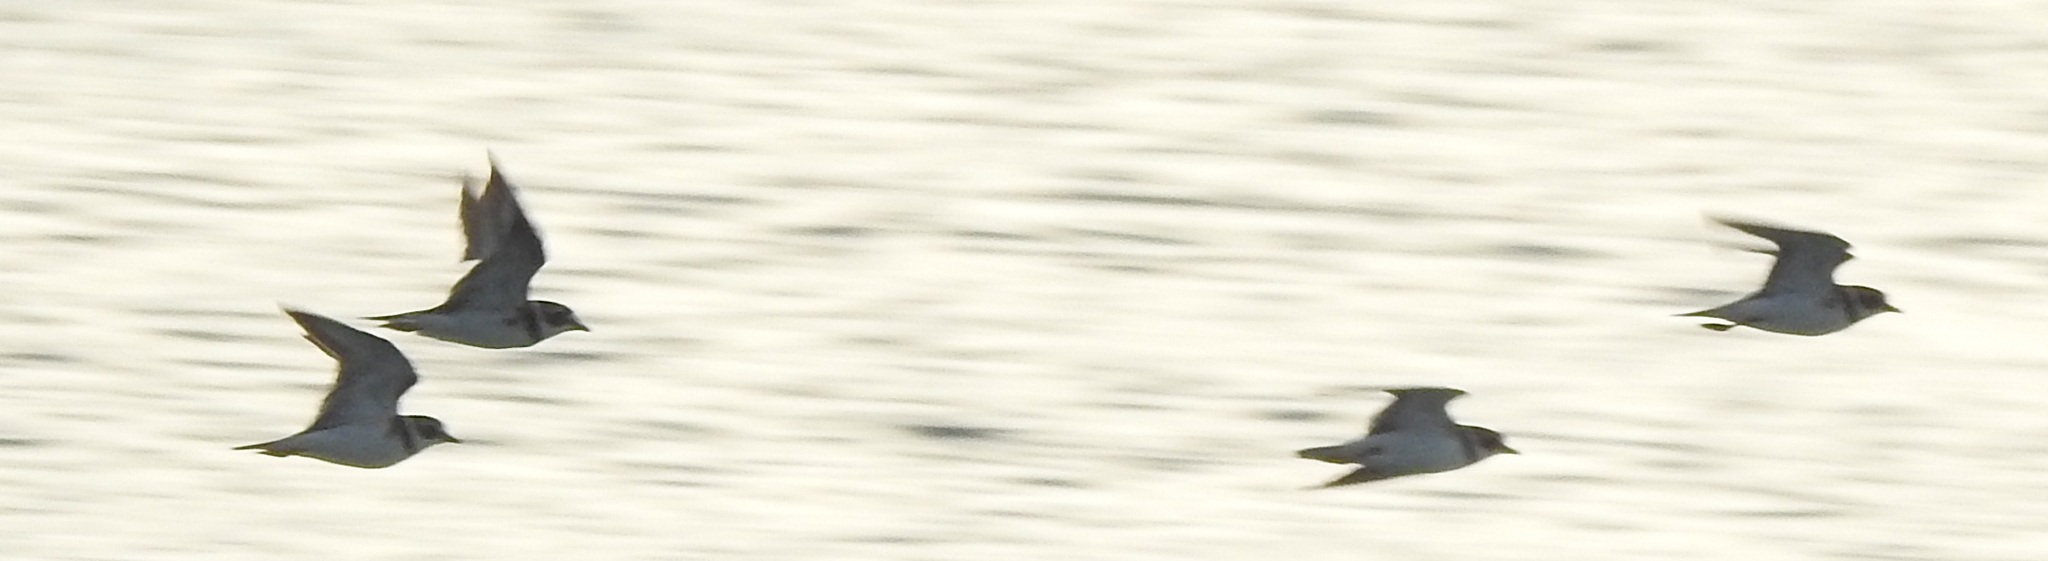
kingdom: Animalia
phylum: Chordata
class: Aves
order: Charadriiformes
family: Charadriidae
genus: Charadrius
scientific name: Charadrius semipalmatus
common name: Semipalmated plover
